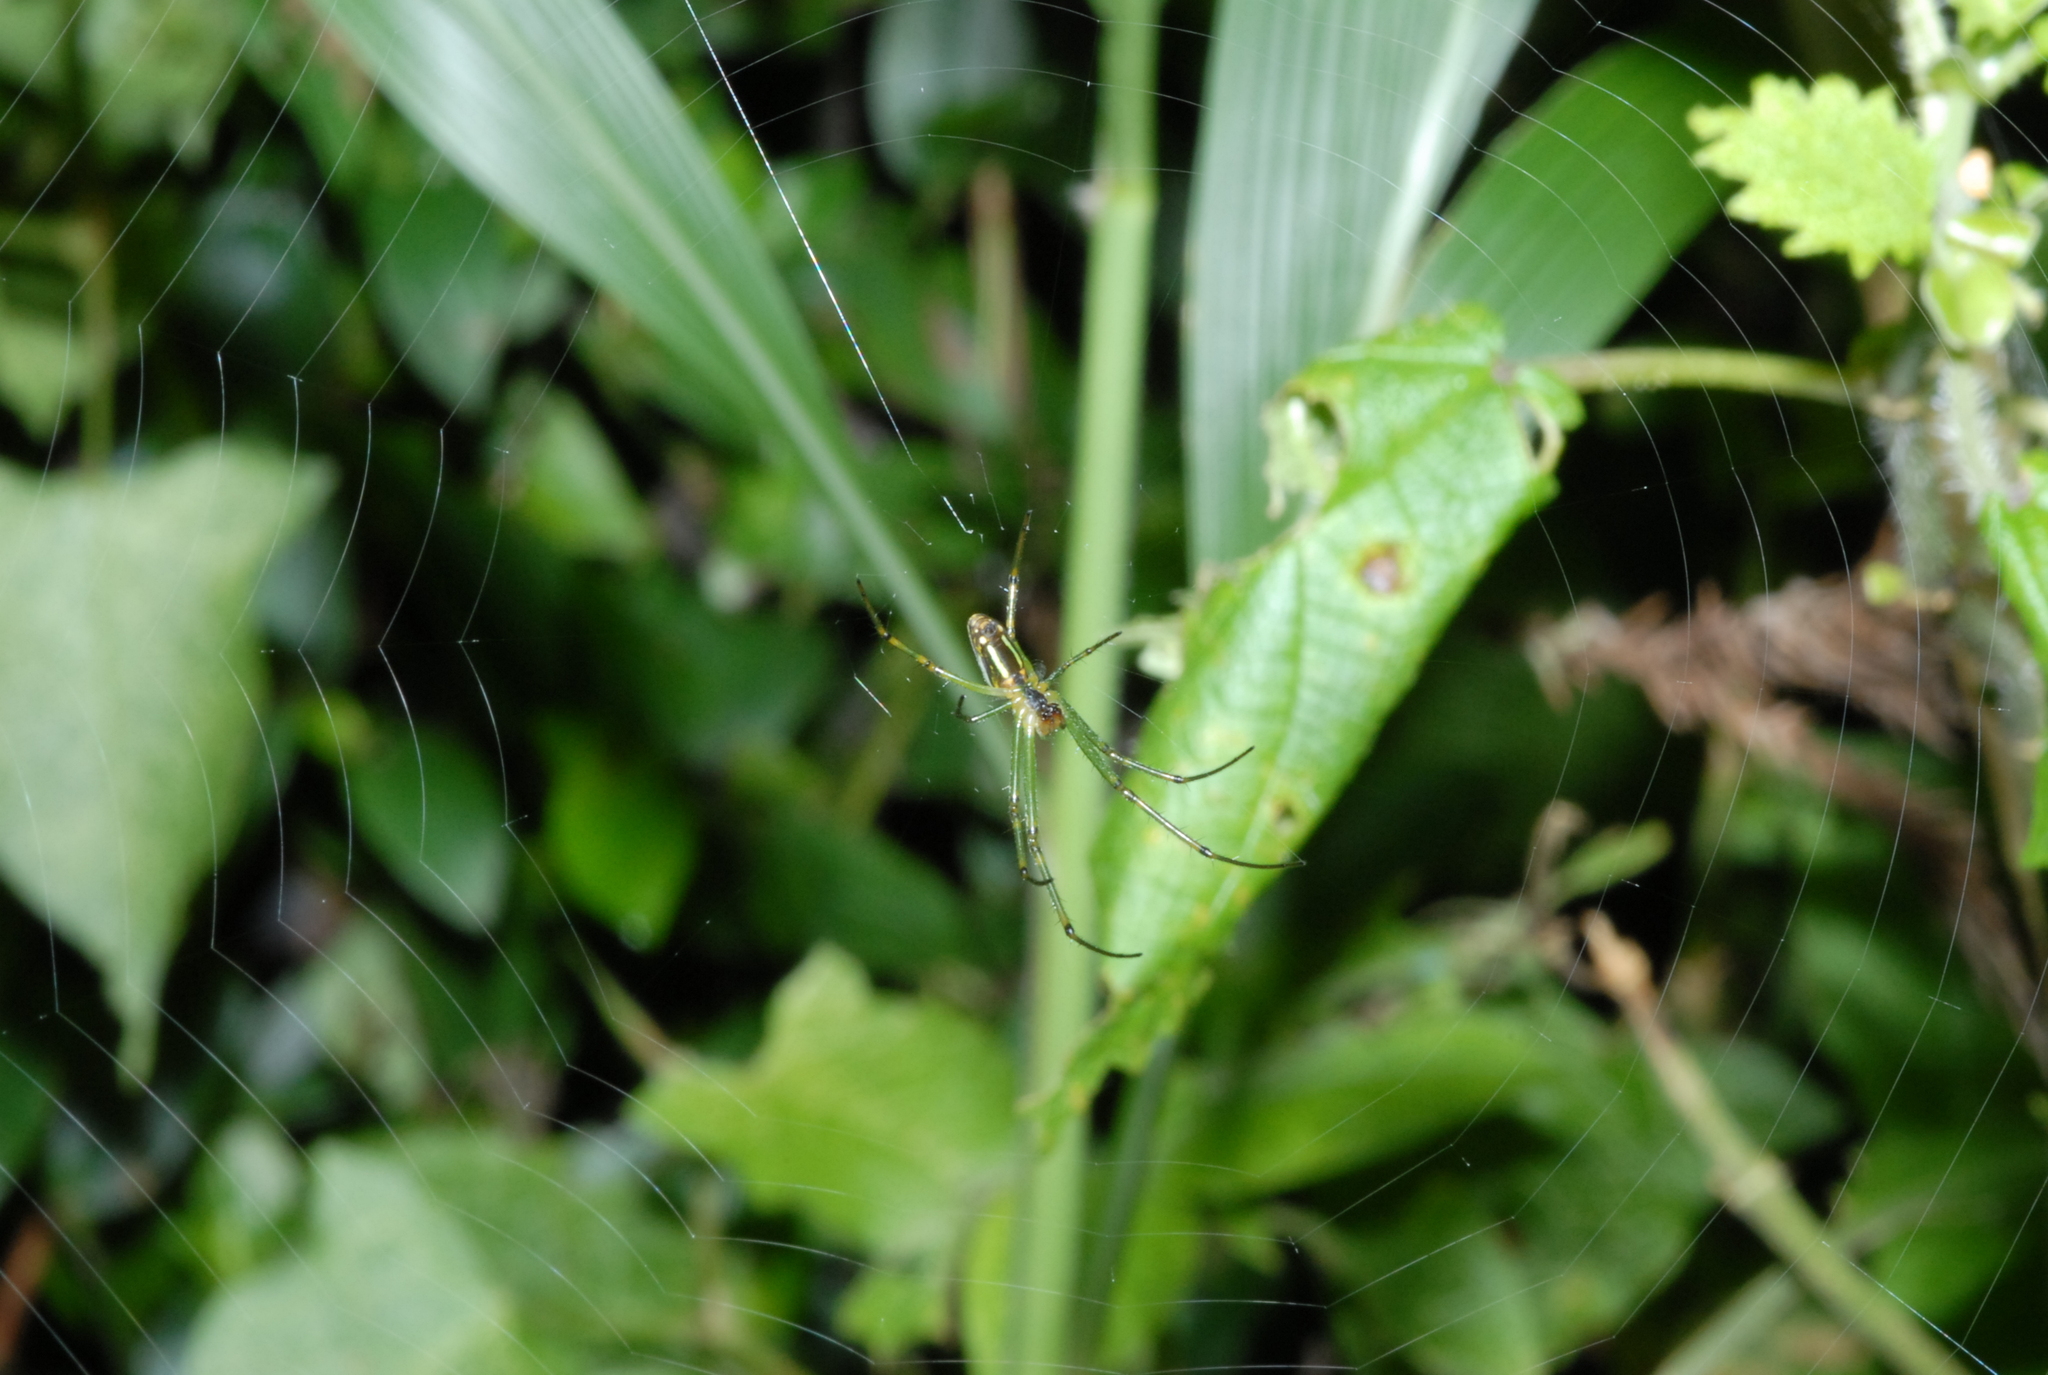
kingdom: Animalia
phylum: Arthropoda
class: Arachnida
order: Araneae
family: Tetragnathidae
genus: Leucauge
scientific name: Leucauge celebesiana
